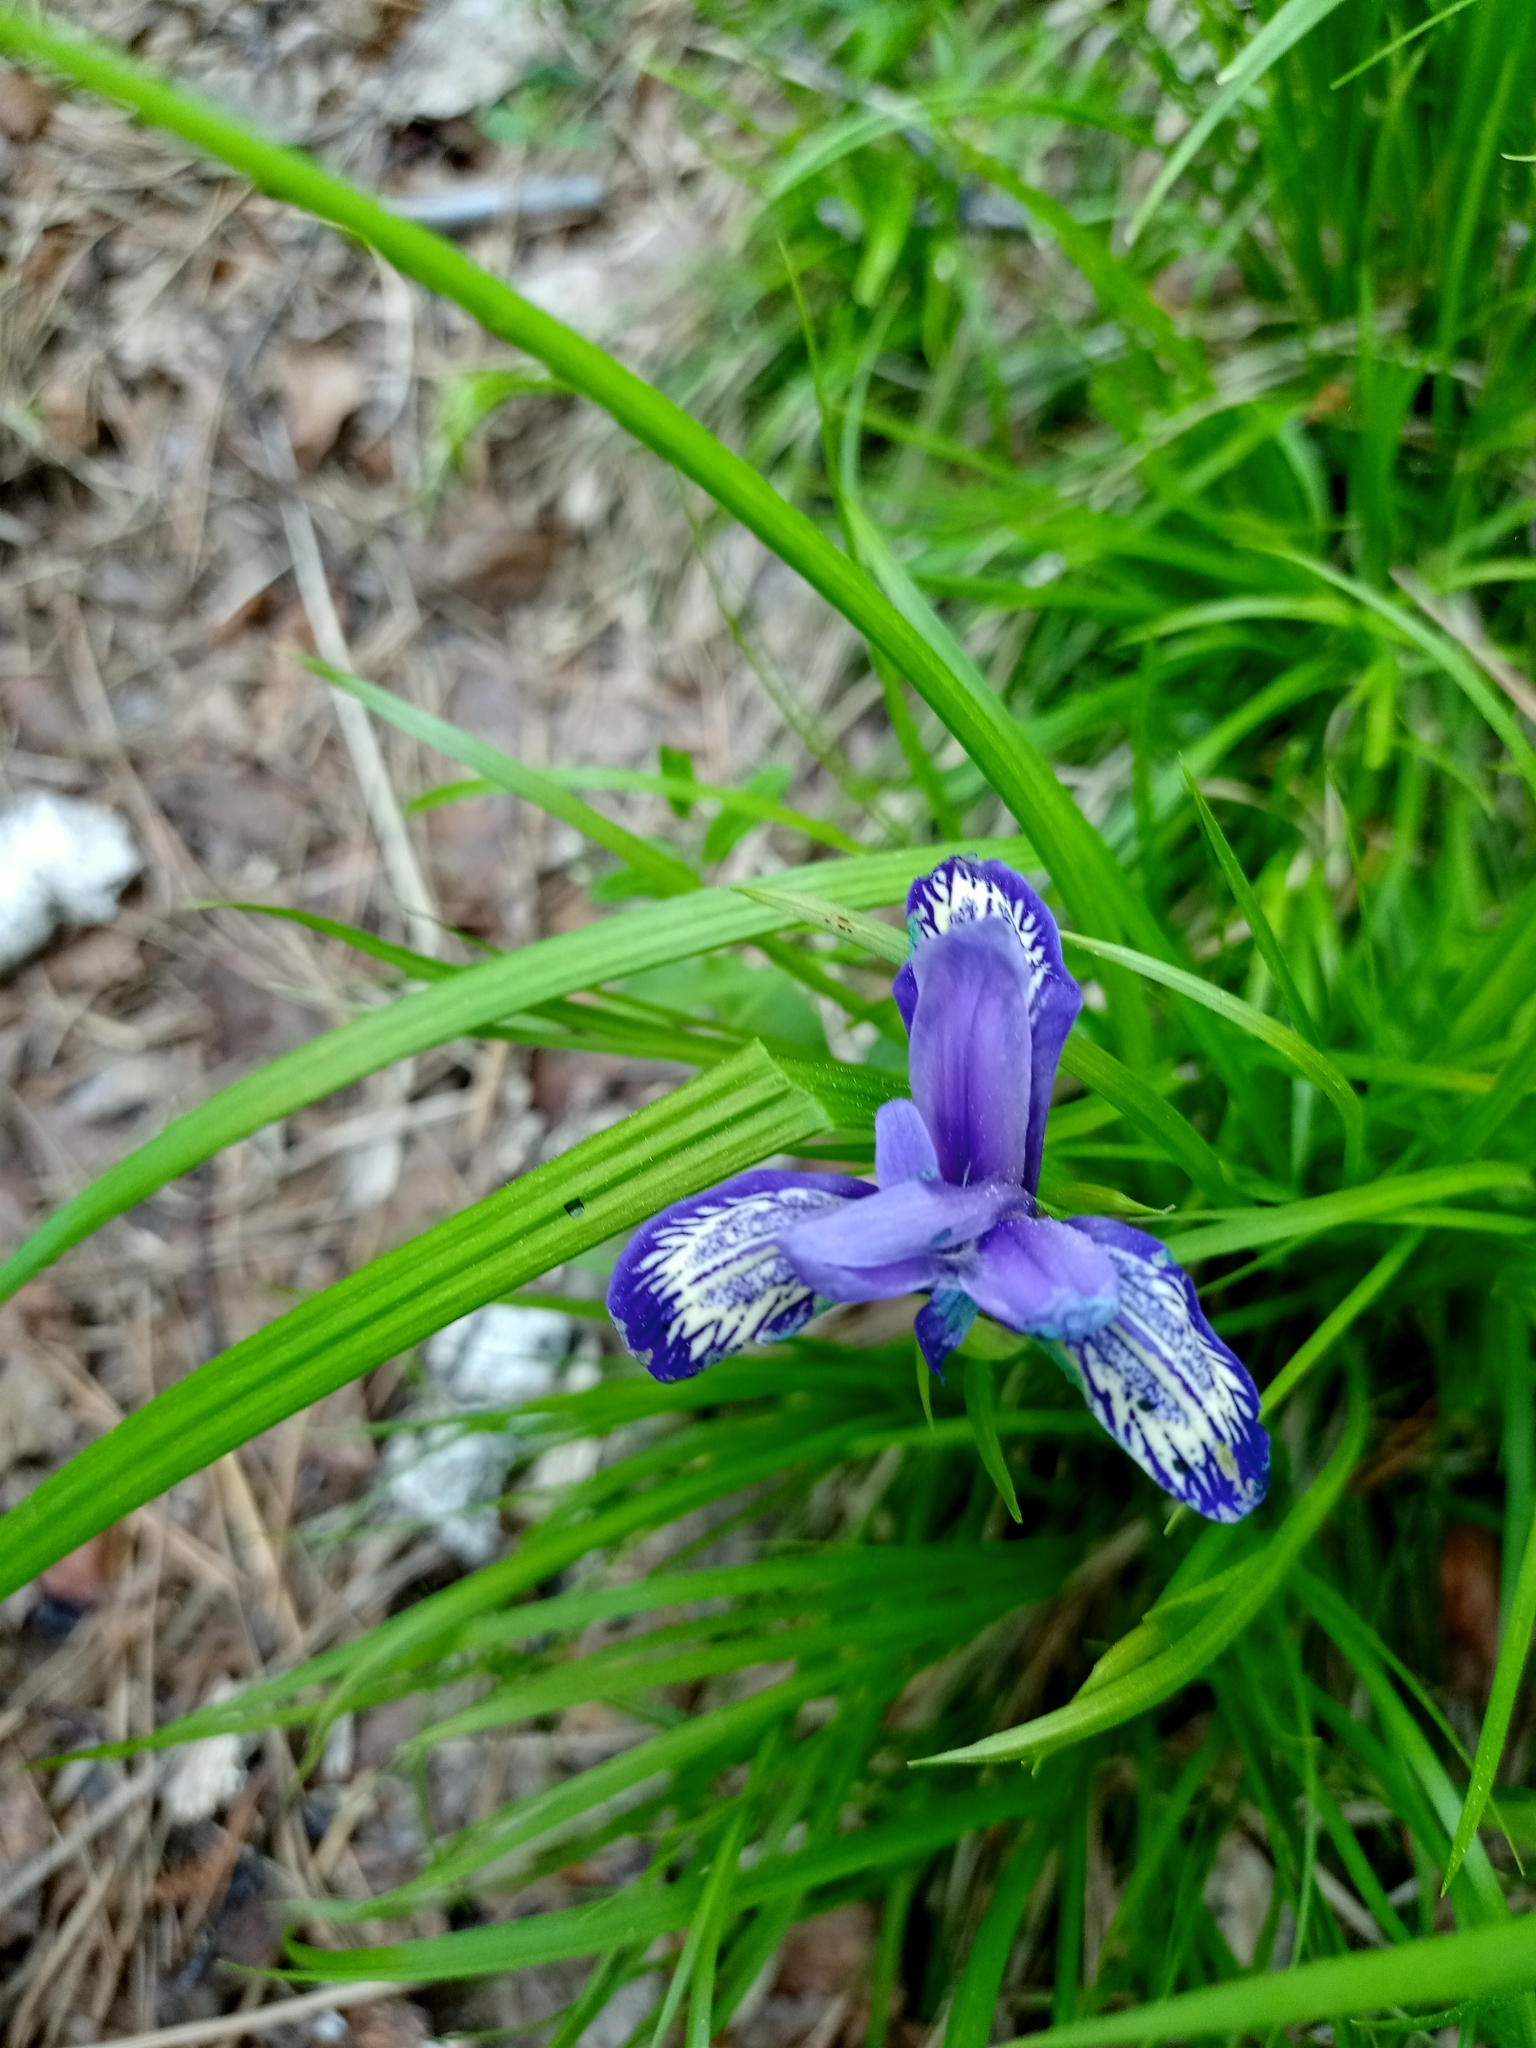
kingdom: Plantae
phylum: Tracheophyta
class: Liliopsida
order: Asparagales
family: Iridaceae
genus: Iris
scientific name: Iris ruthenica
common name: Purple-bract iris
